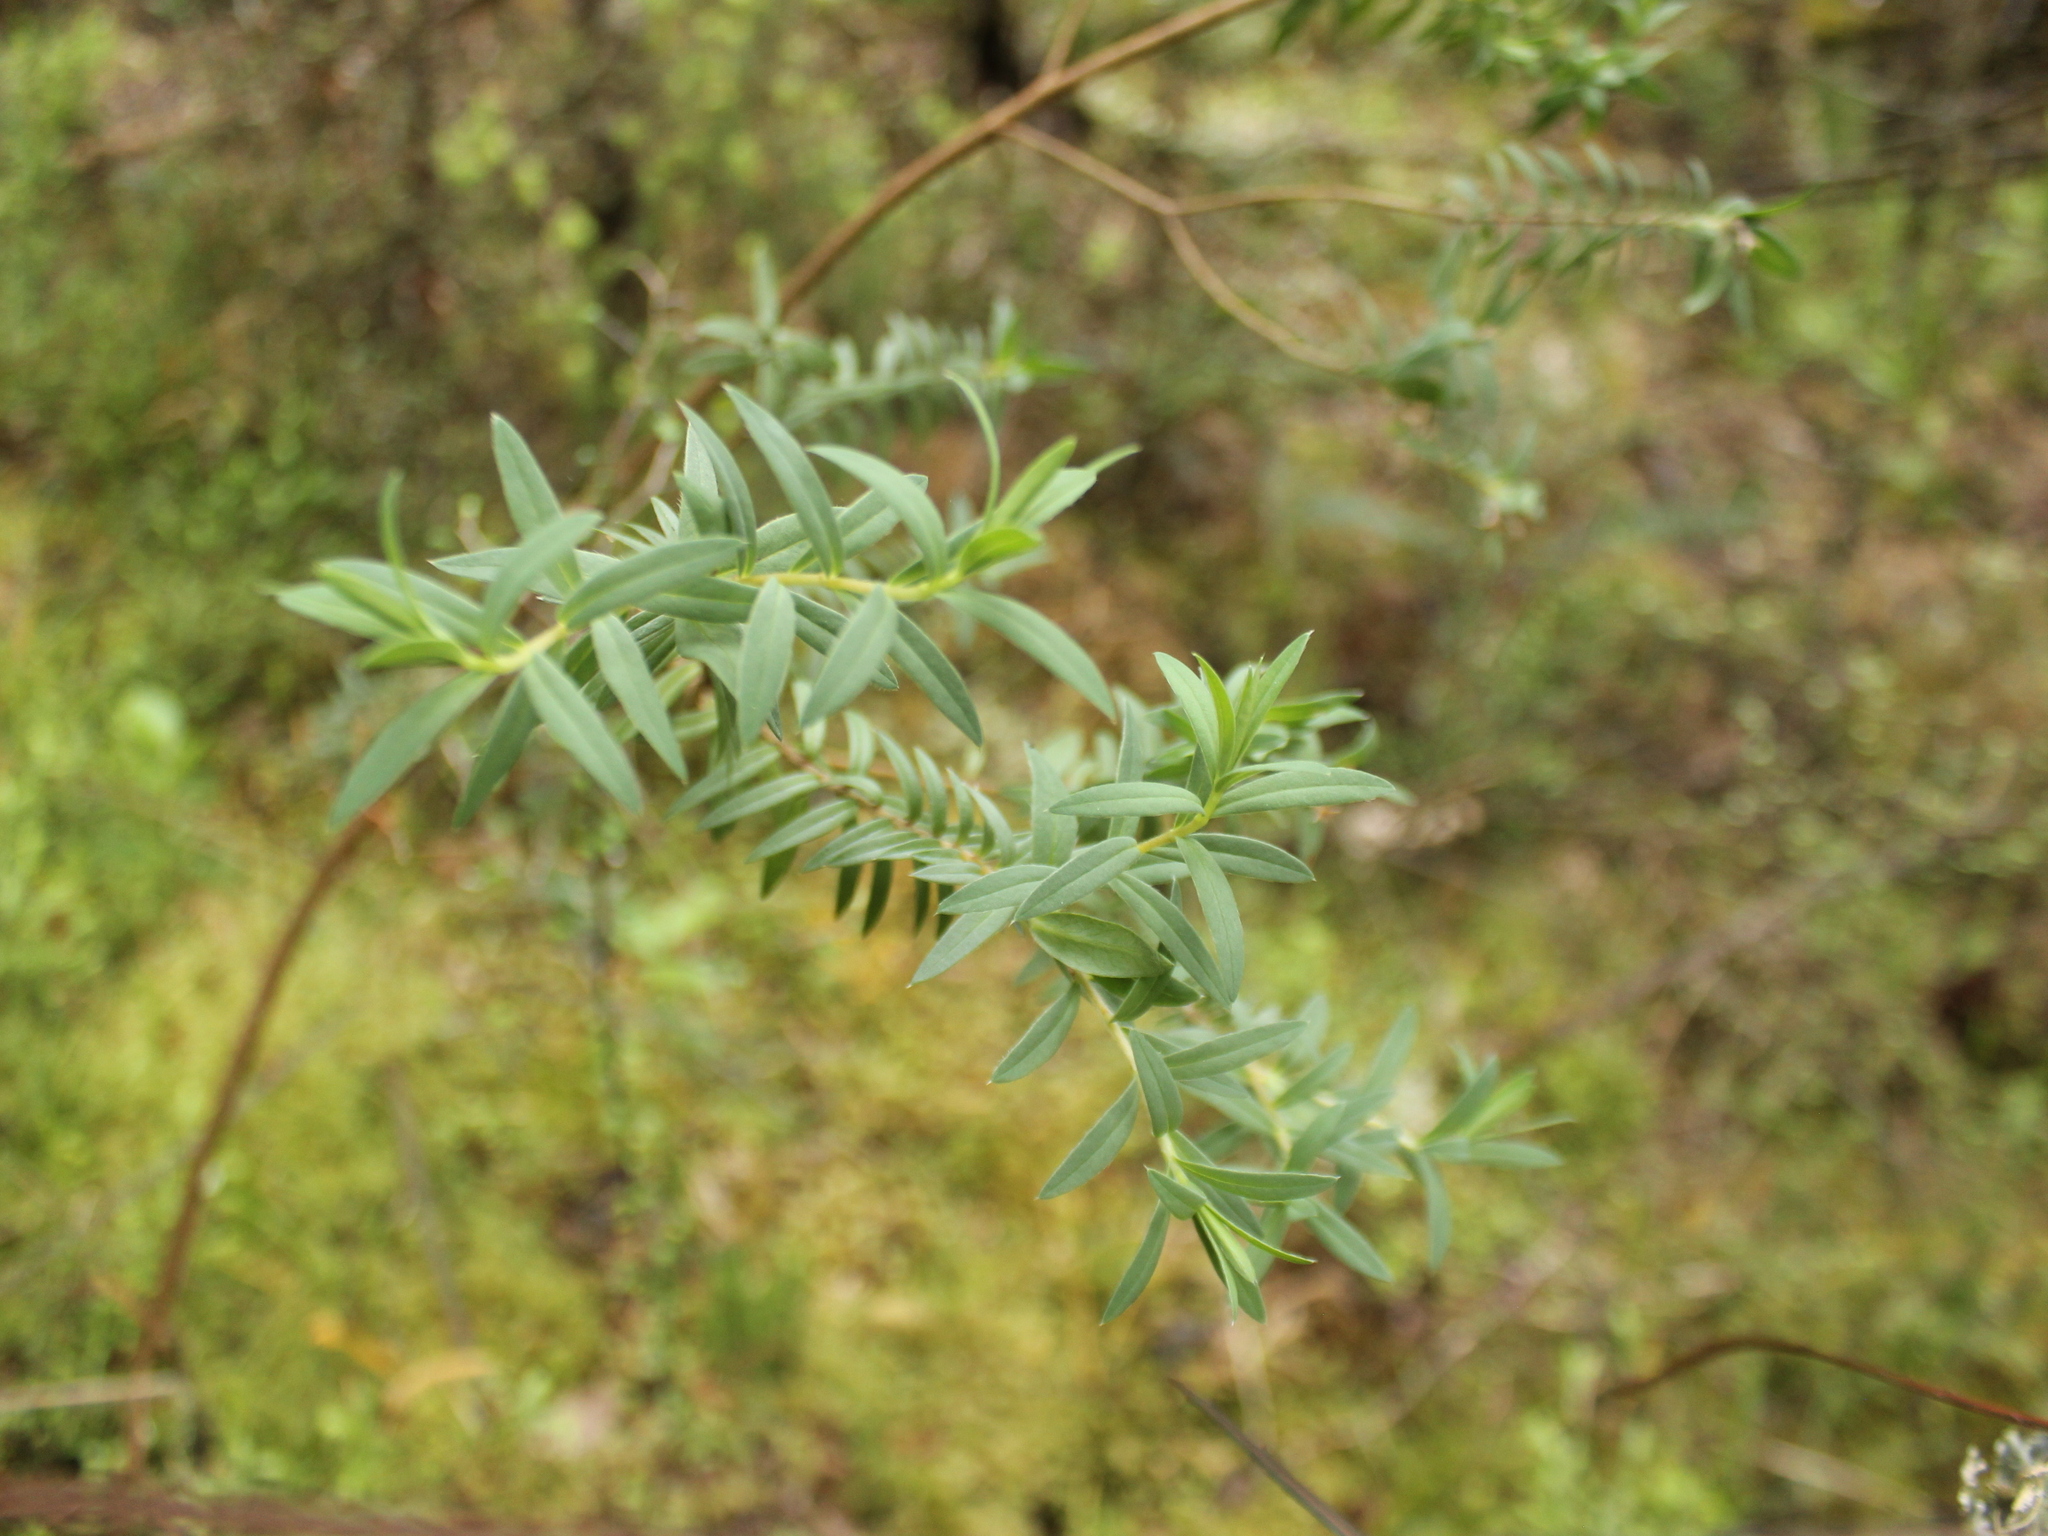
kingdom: Plantae
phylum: Tracheophyta
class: Magnoliopsida
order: Malvales
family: Thymelaeaceae
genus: Pimelea
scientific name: Pimelea tomentosa
